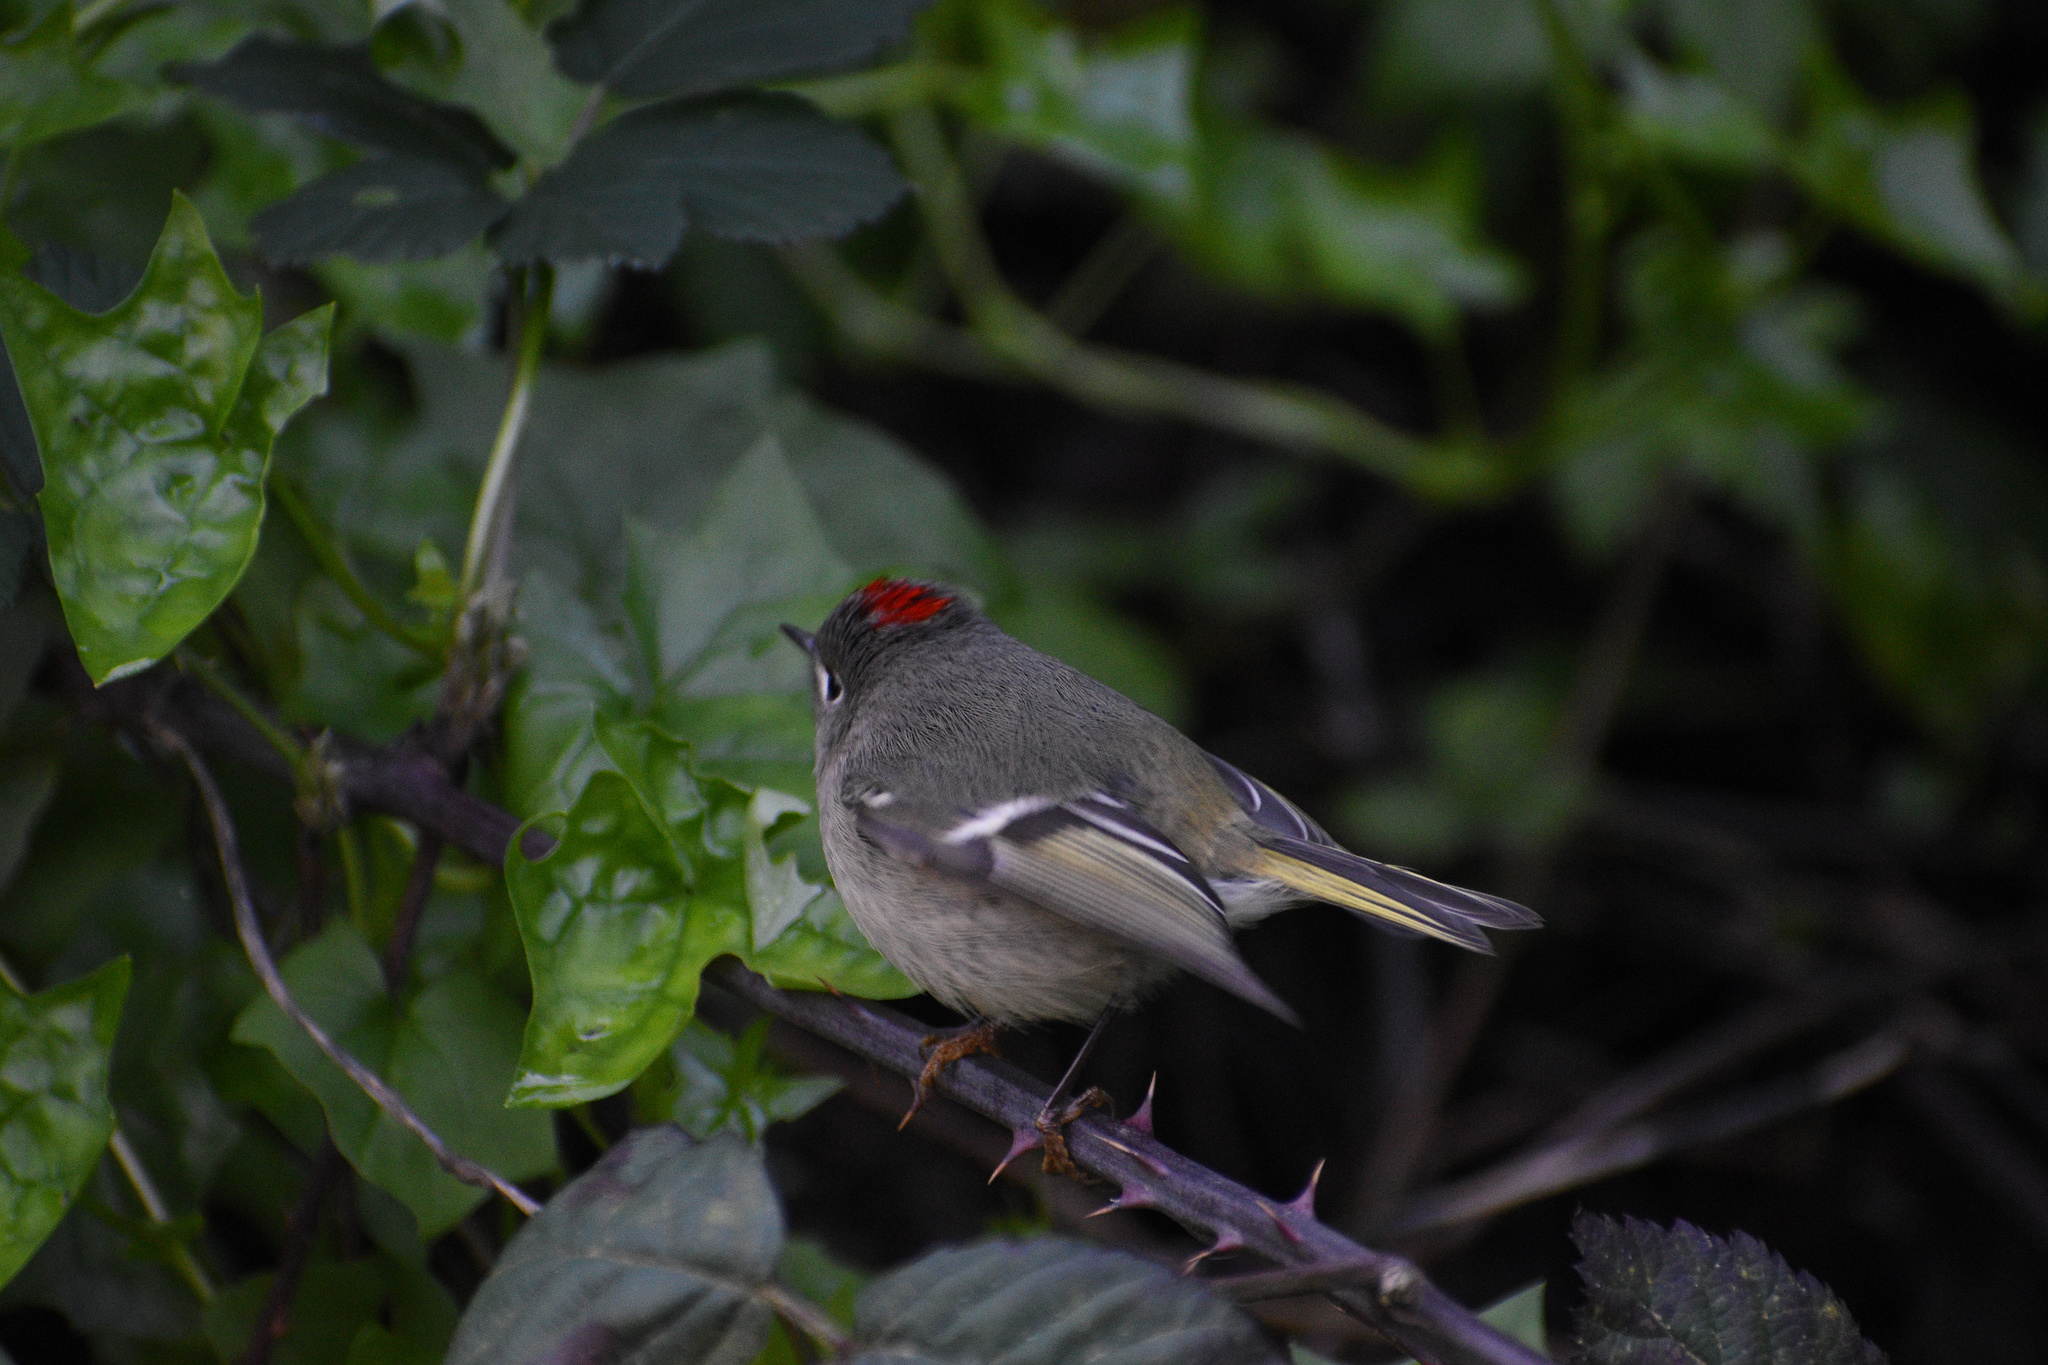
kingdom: Animalia
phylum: Chordata
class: Aves
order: Passeriformes
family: Regulidae
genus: Regulus
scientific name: Regulus calendula
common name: Ruby-crowned kinglet
